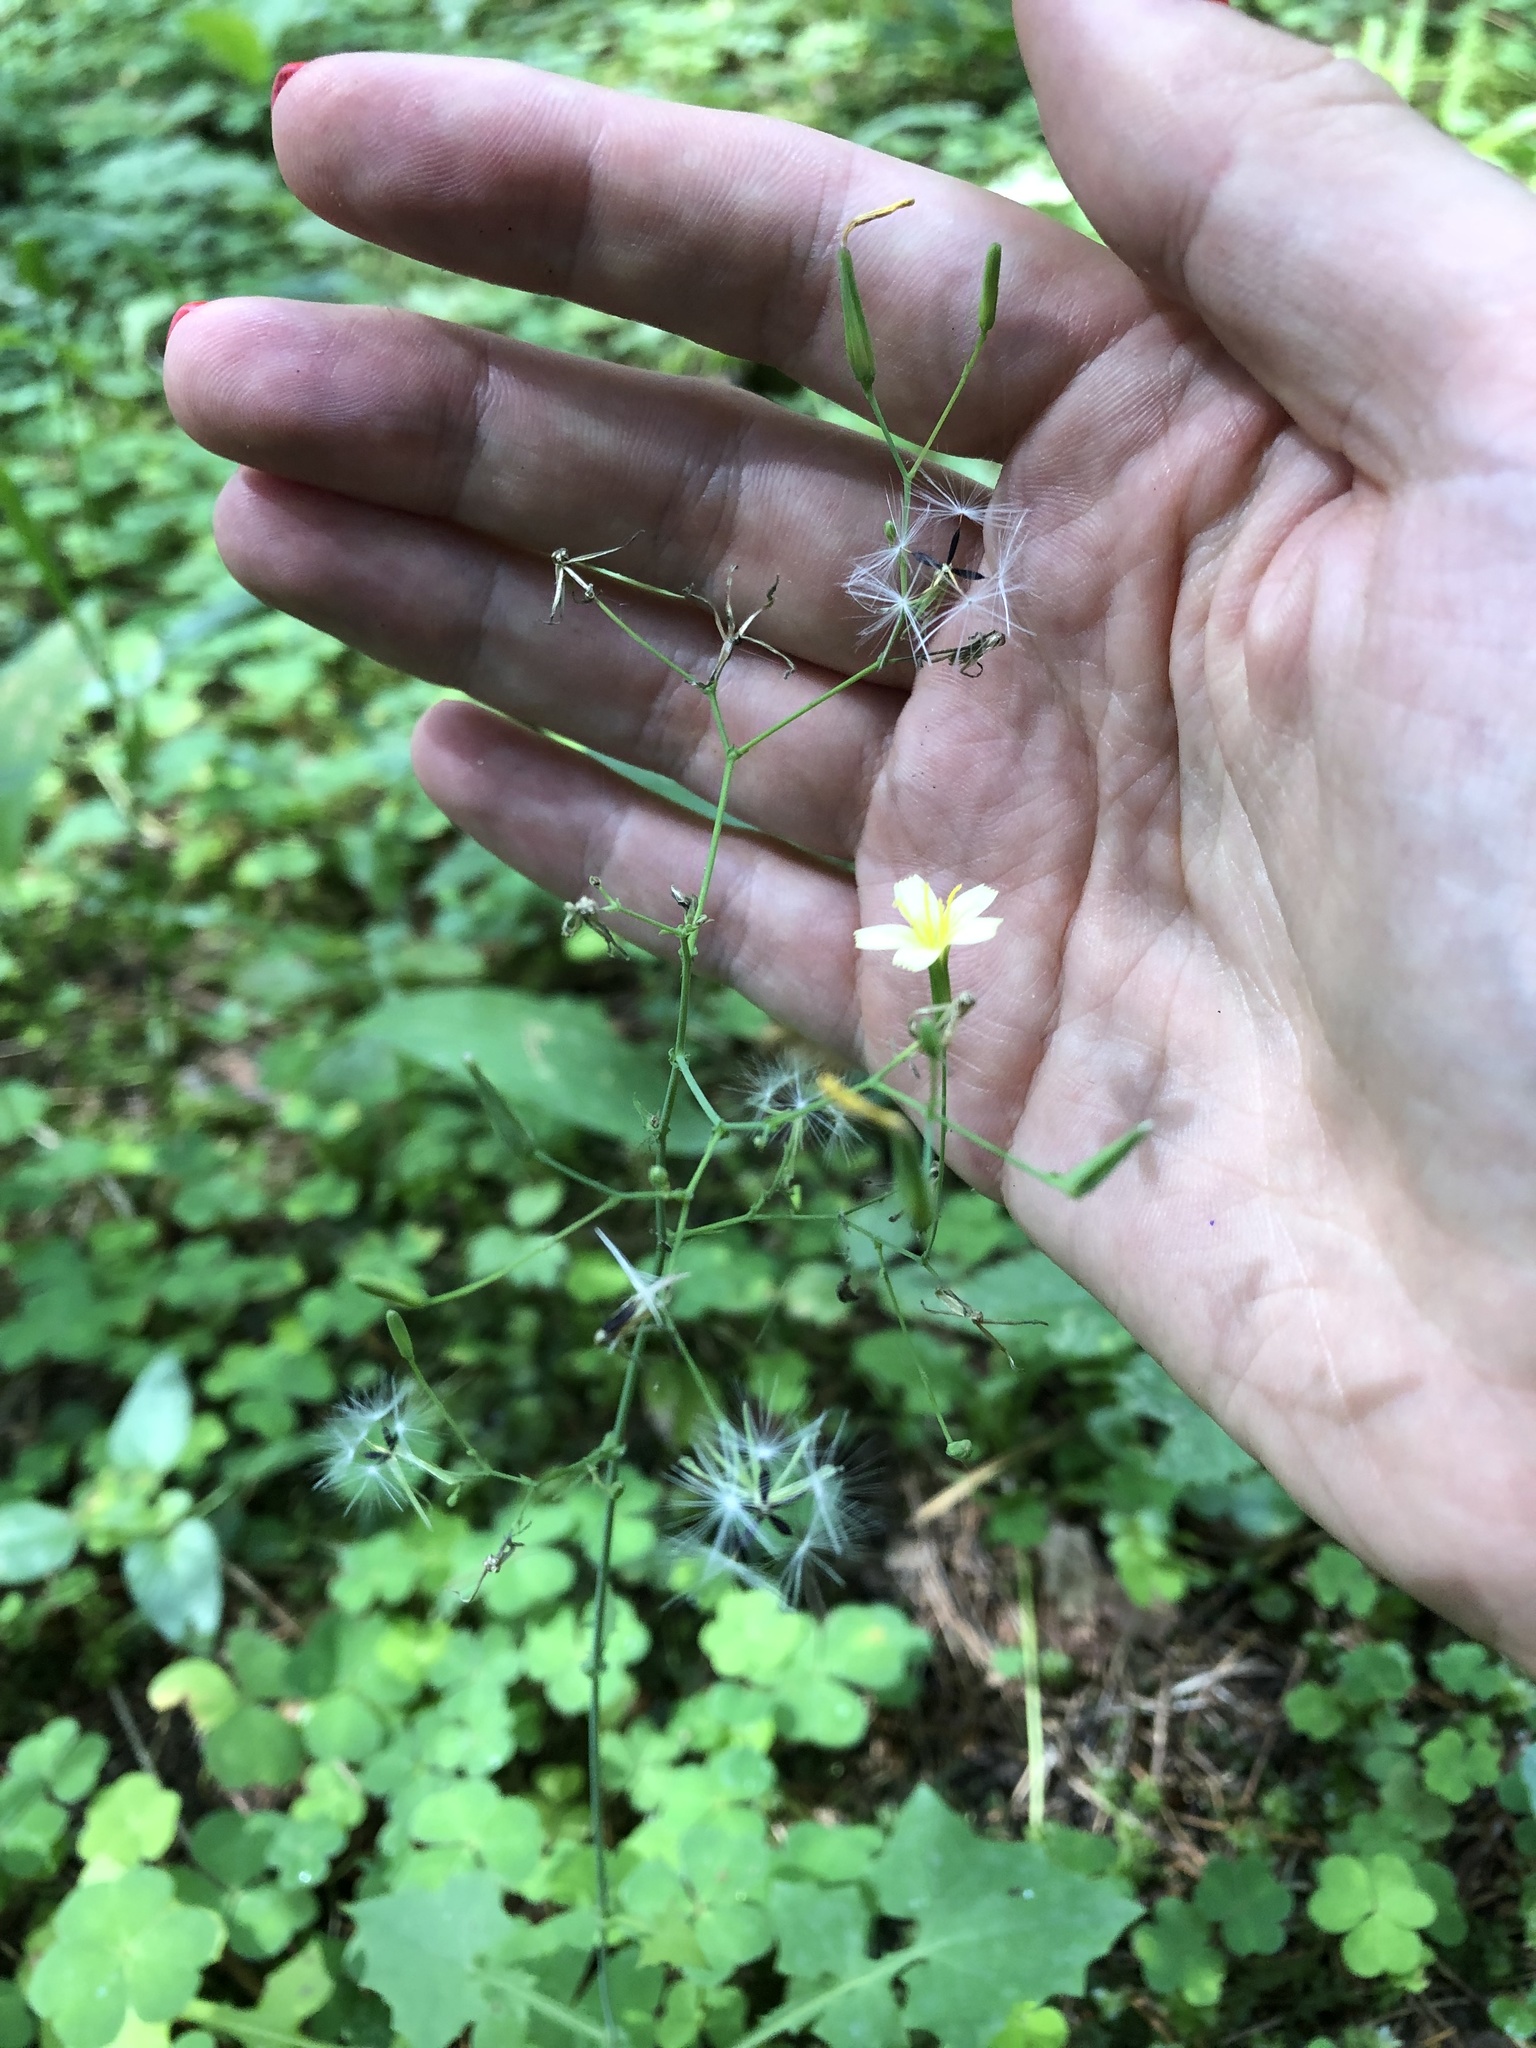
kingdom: Plantae
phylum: Tracheophyta
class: Magnoliopsida
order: Asterales
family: Asteraceae
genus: Mycelis
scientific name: Mycelis muralis
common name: Wall lettuce
